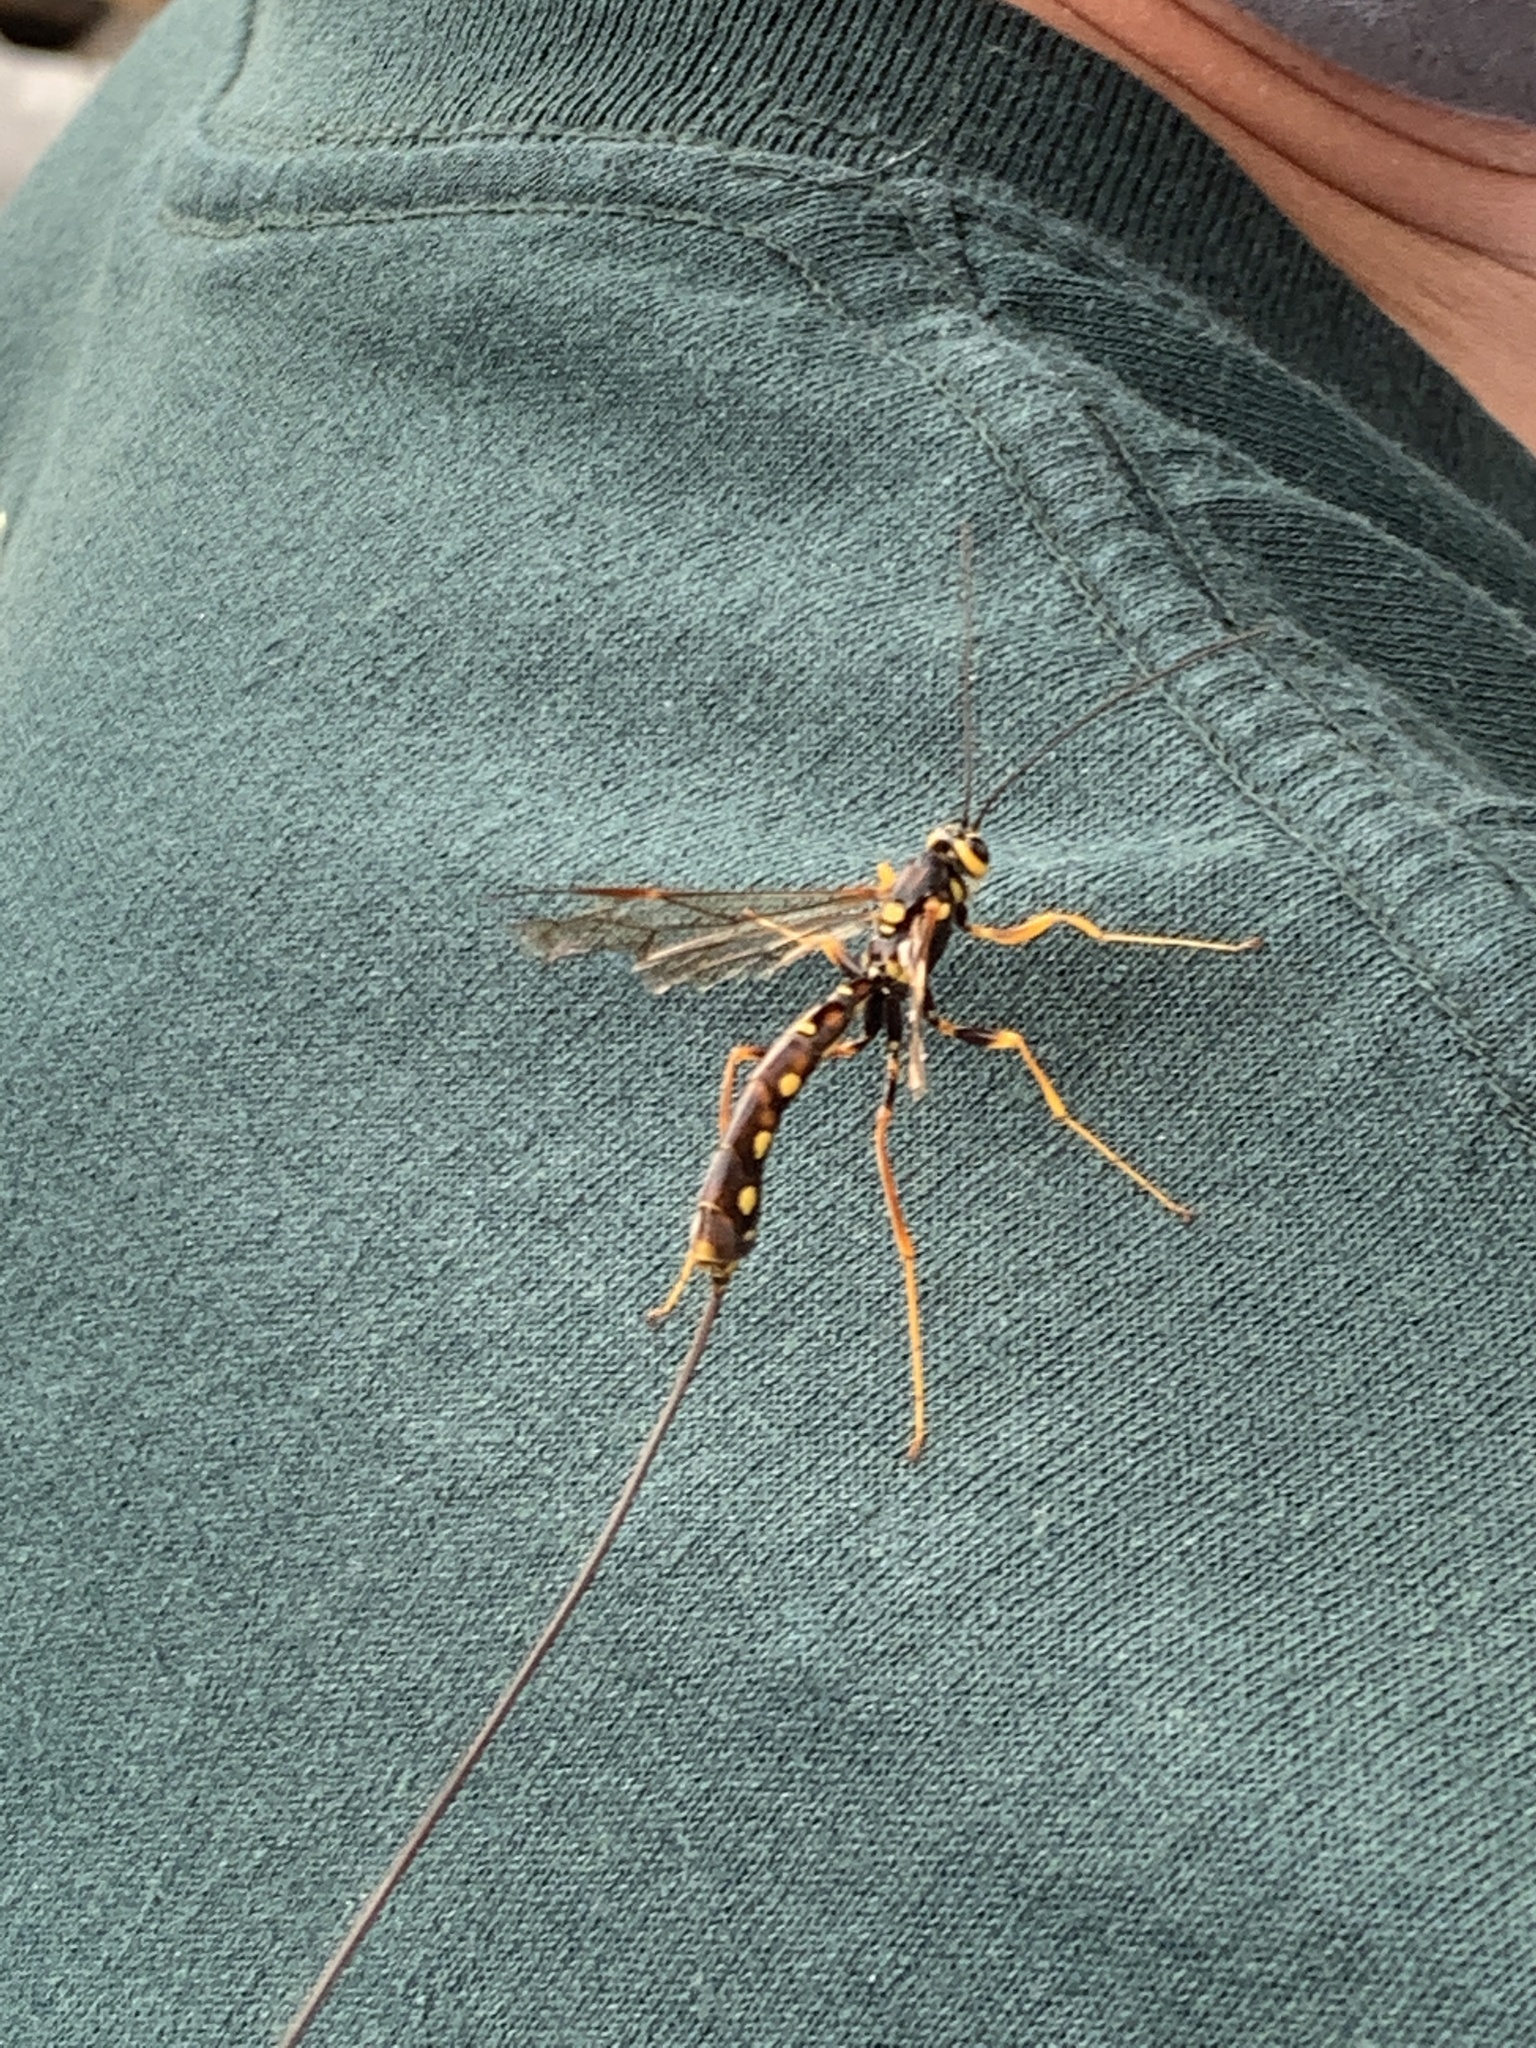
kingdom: Animalia
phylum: Arthropoda
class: Insecta
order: Hymenoptera
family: Ichneumonidae
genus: Megarhyssa
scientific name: Megarhyssa nortoni
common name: Norton's giant ichneumonid wasp
